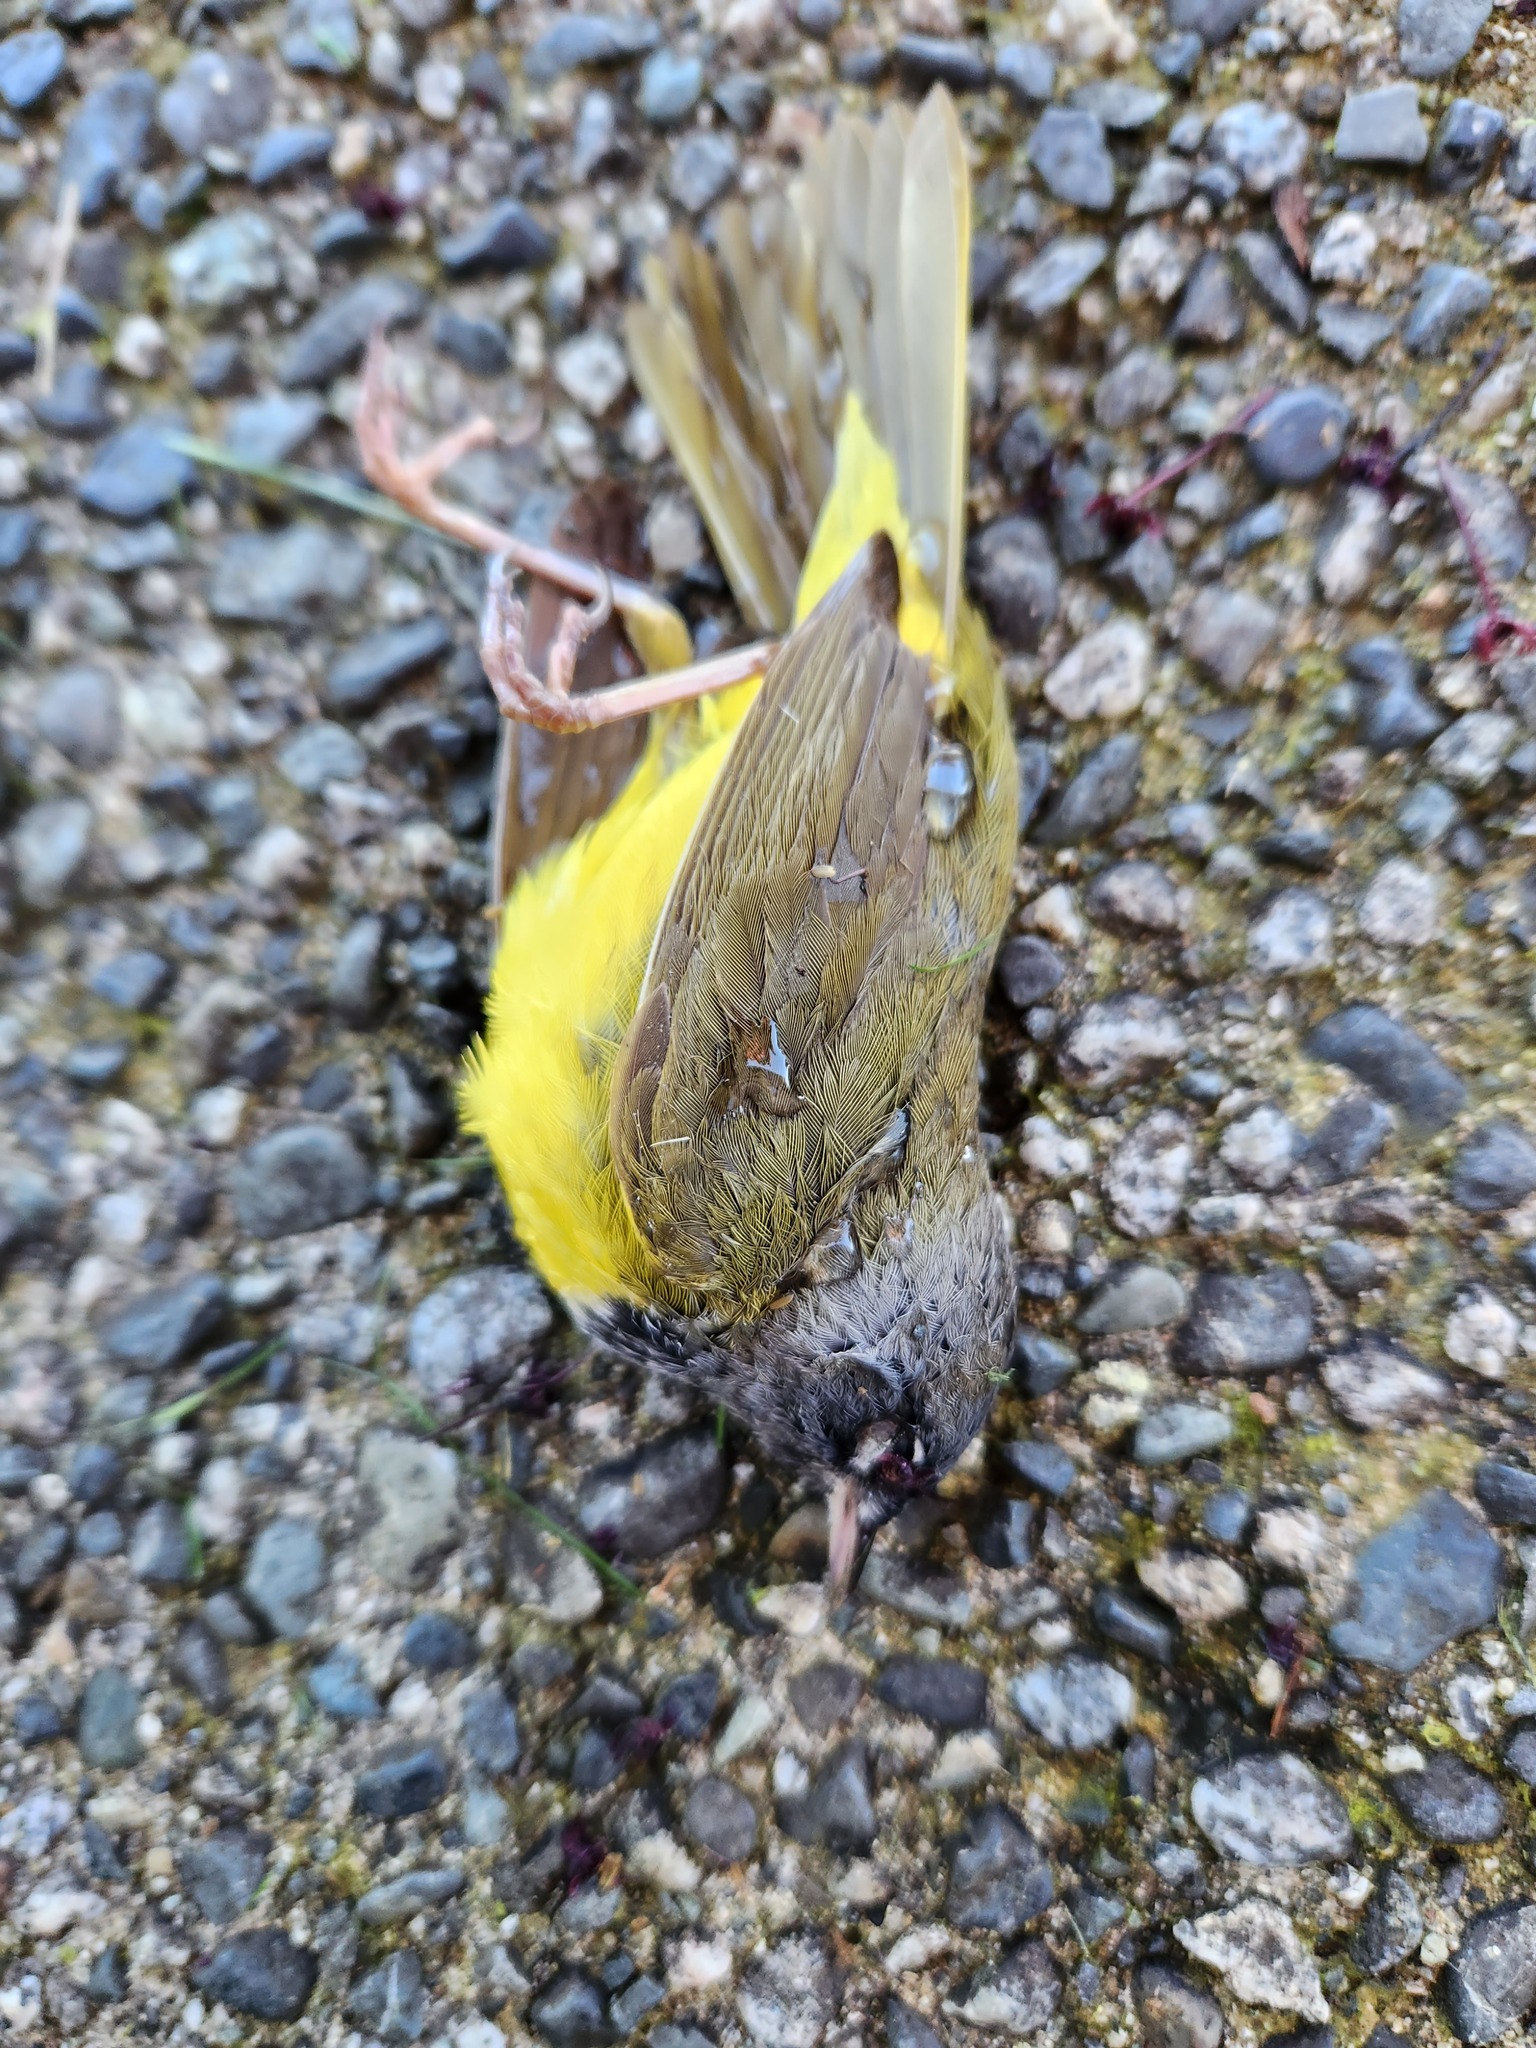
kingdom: Animalia
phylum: Chordata
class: Aves
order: Passeriformes
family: Parulidae
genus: Geothlypis
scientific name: Geothlypis tolmiei
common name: Macgillivray's warbler
